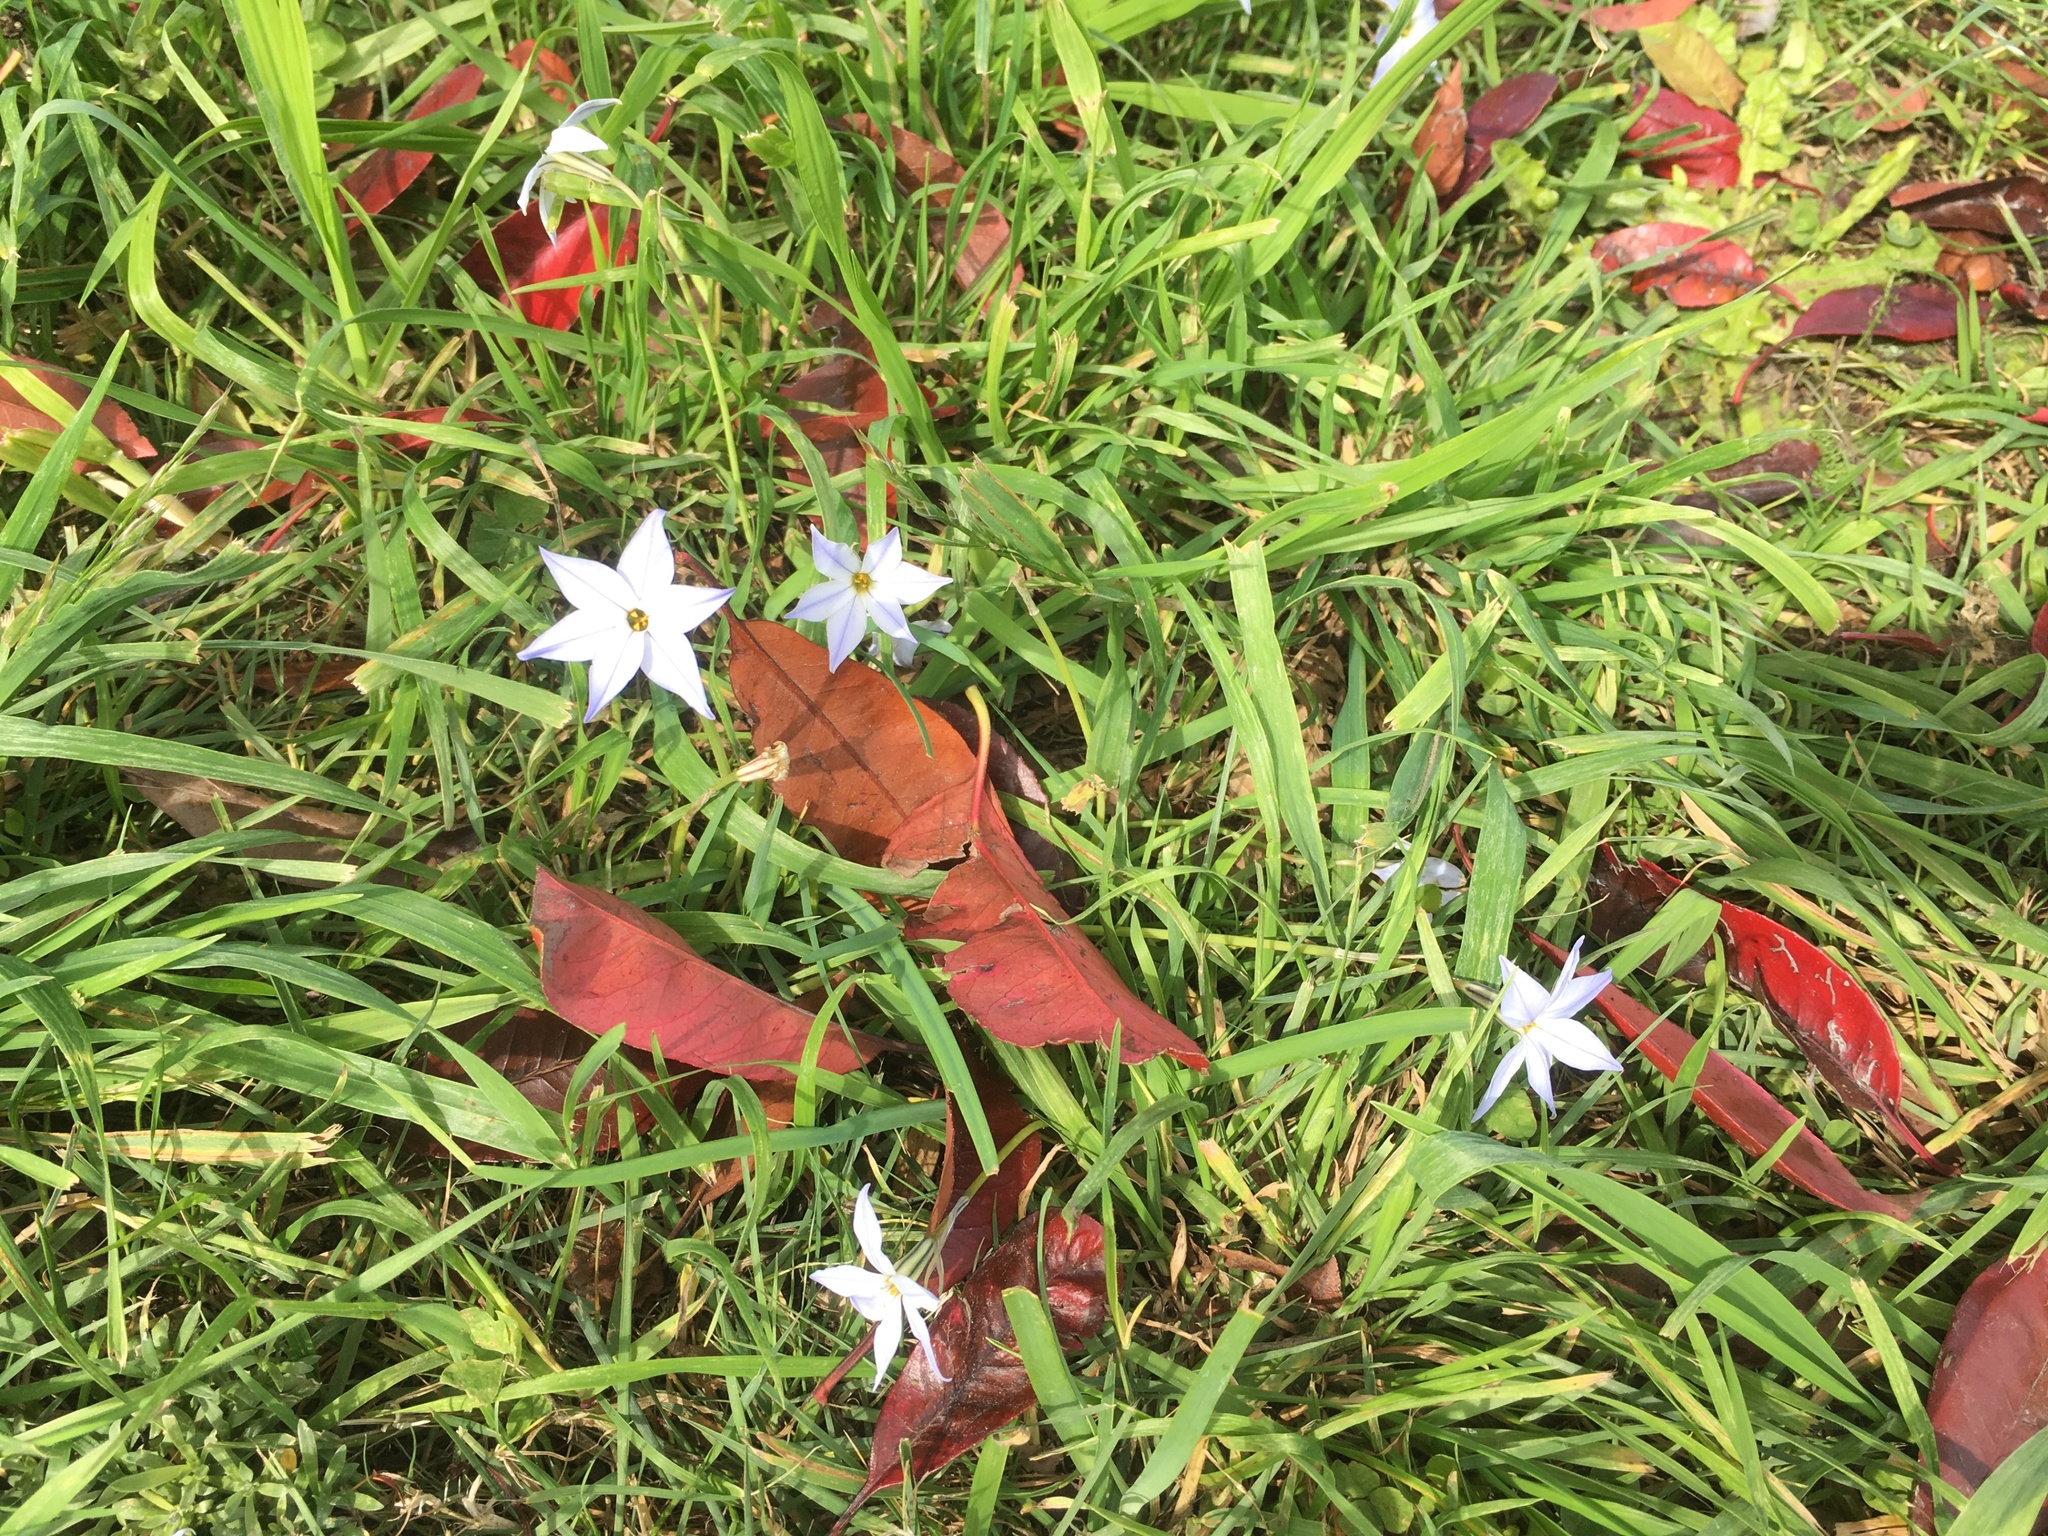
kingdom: Plantae
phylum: Tracheophyta
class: Liliopsida
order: Asparagales
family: Amaryllidaceae
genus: Ipheion
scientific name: Ipheion uniflorum
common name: Spring starflower
